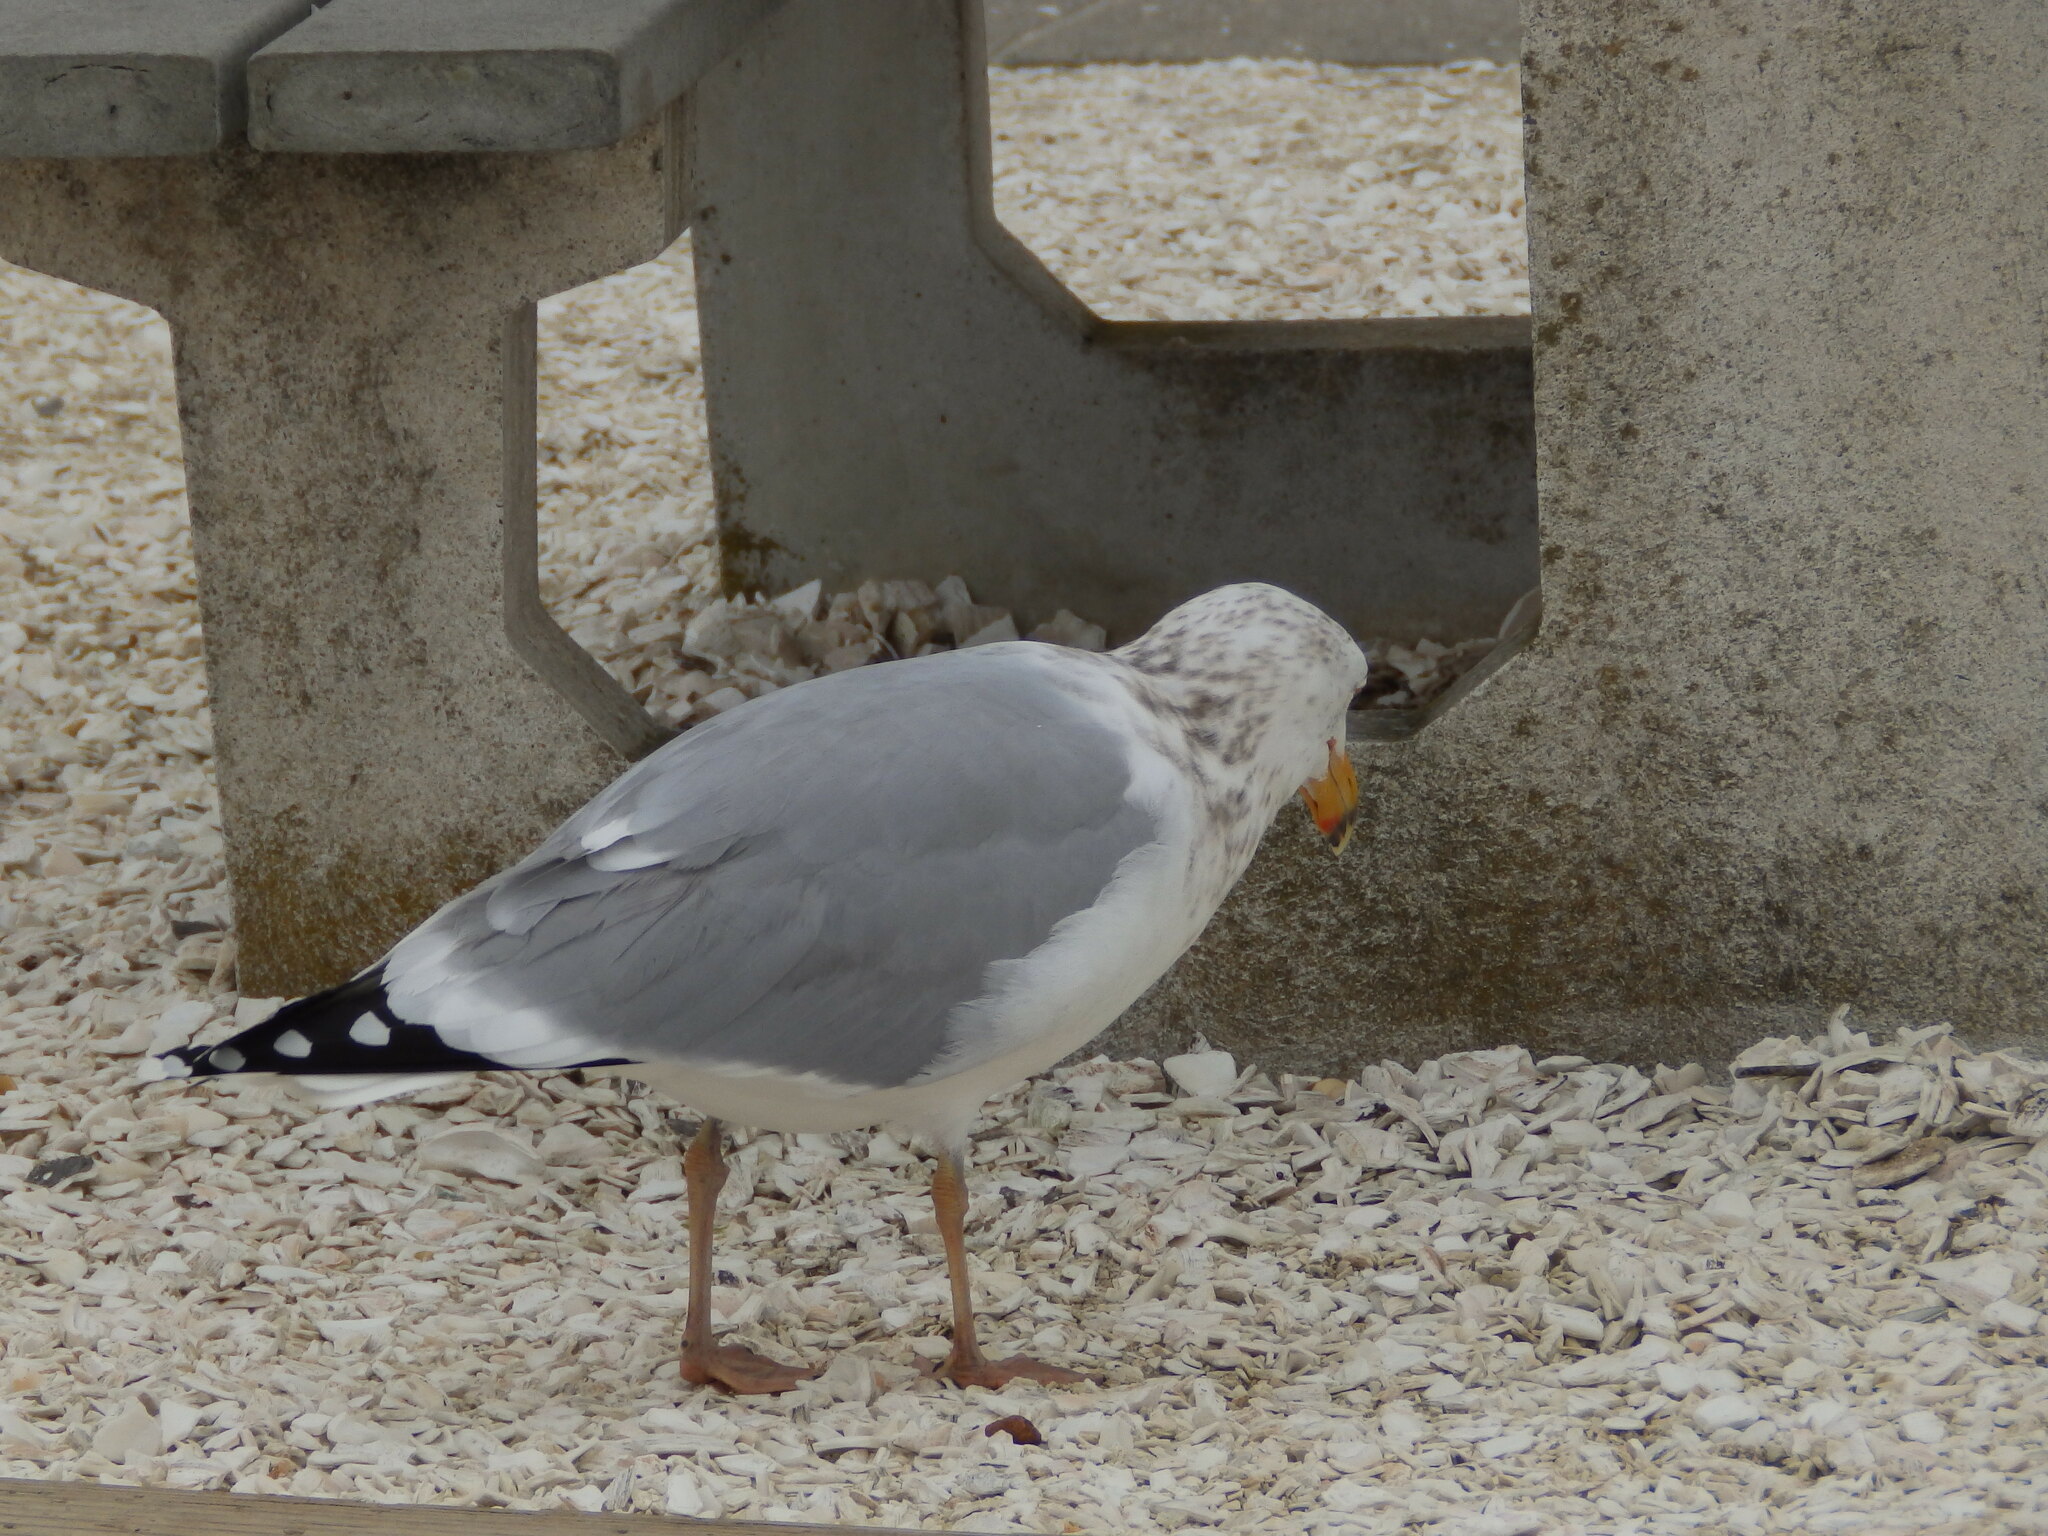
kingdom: Animalia
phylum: Chordata
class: Aves
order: Charadriiformes
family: Laridae
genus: Larus
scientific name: Larus argentatus
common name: Herring gull
